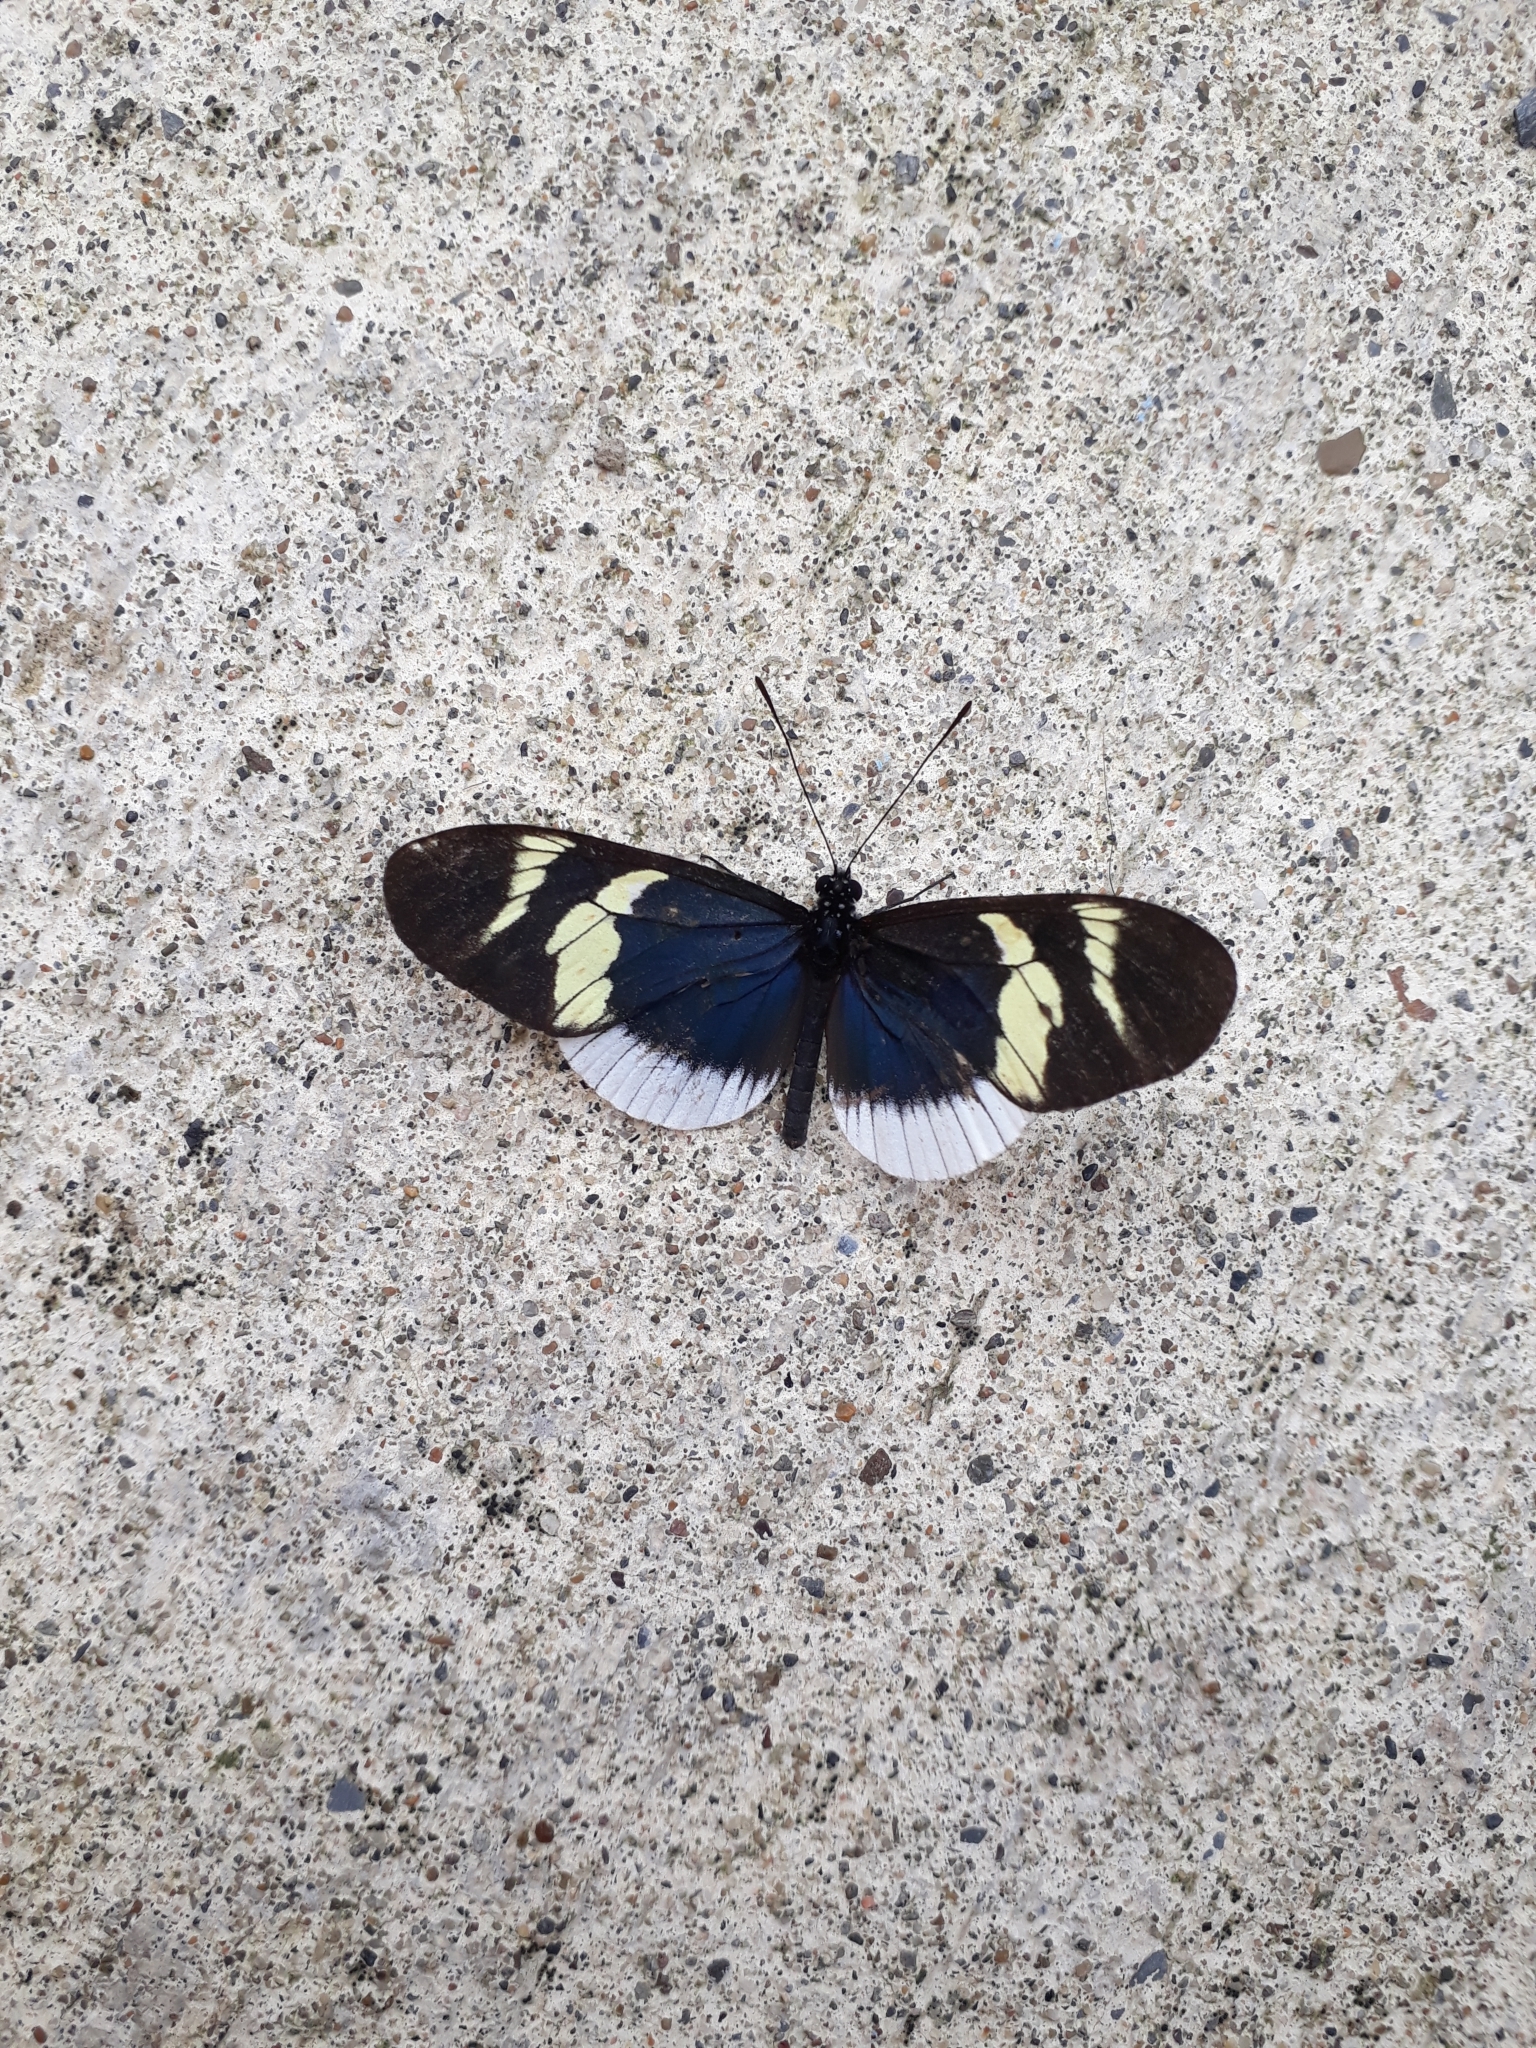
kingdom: Animalia
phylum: Arthropoda
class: Insecta
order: Lepidoptera
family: Nymphalidae
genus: Heliconius
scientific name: Heliconius eleuchia
